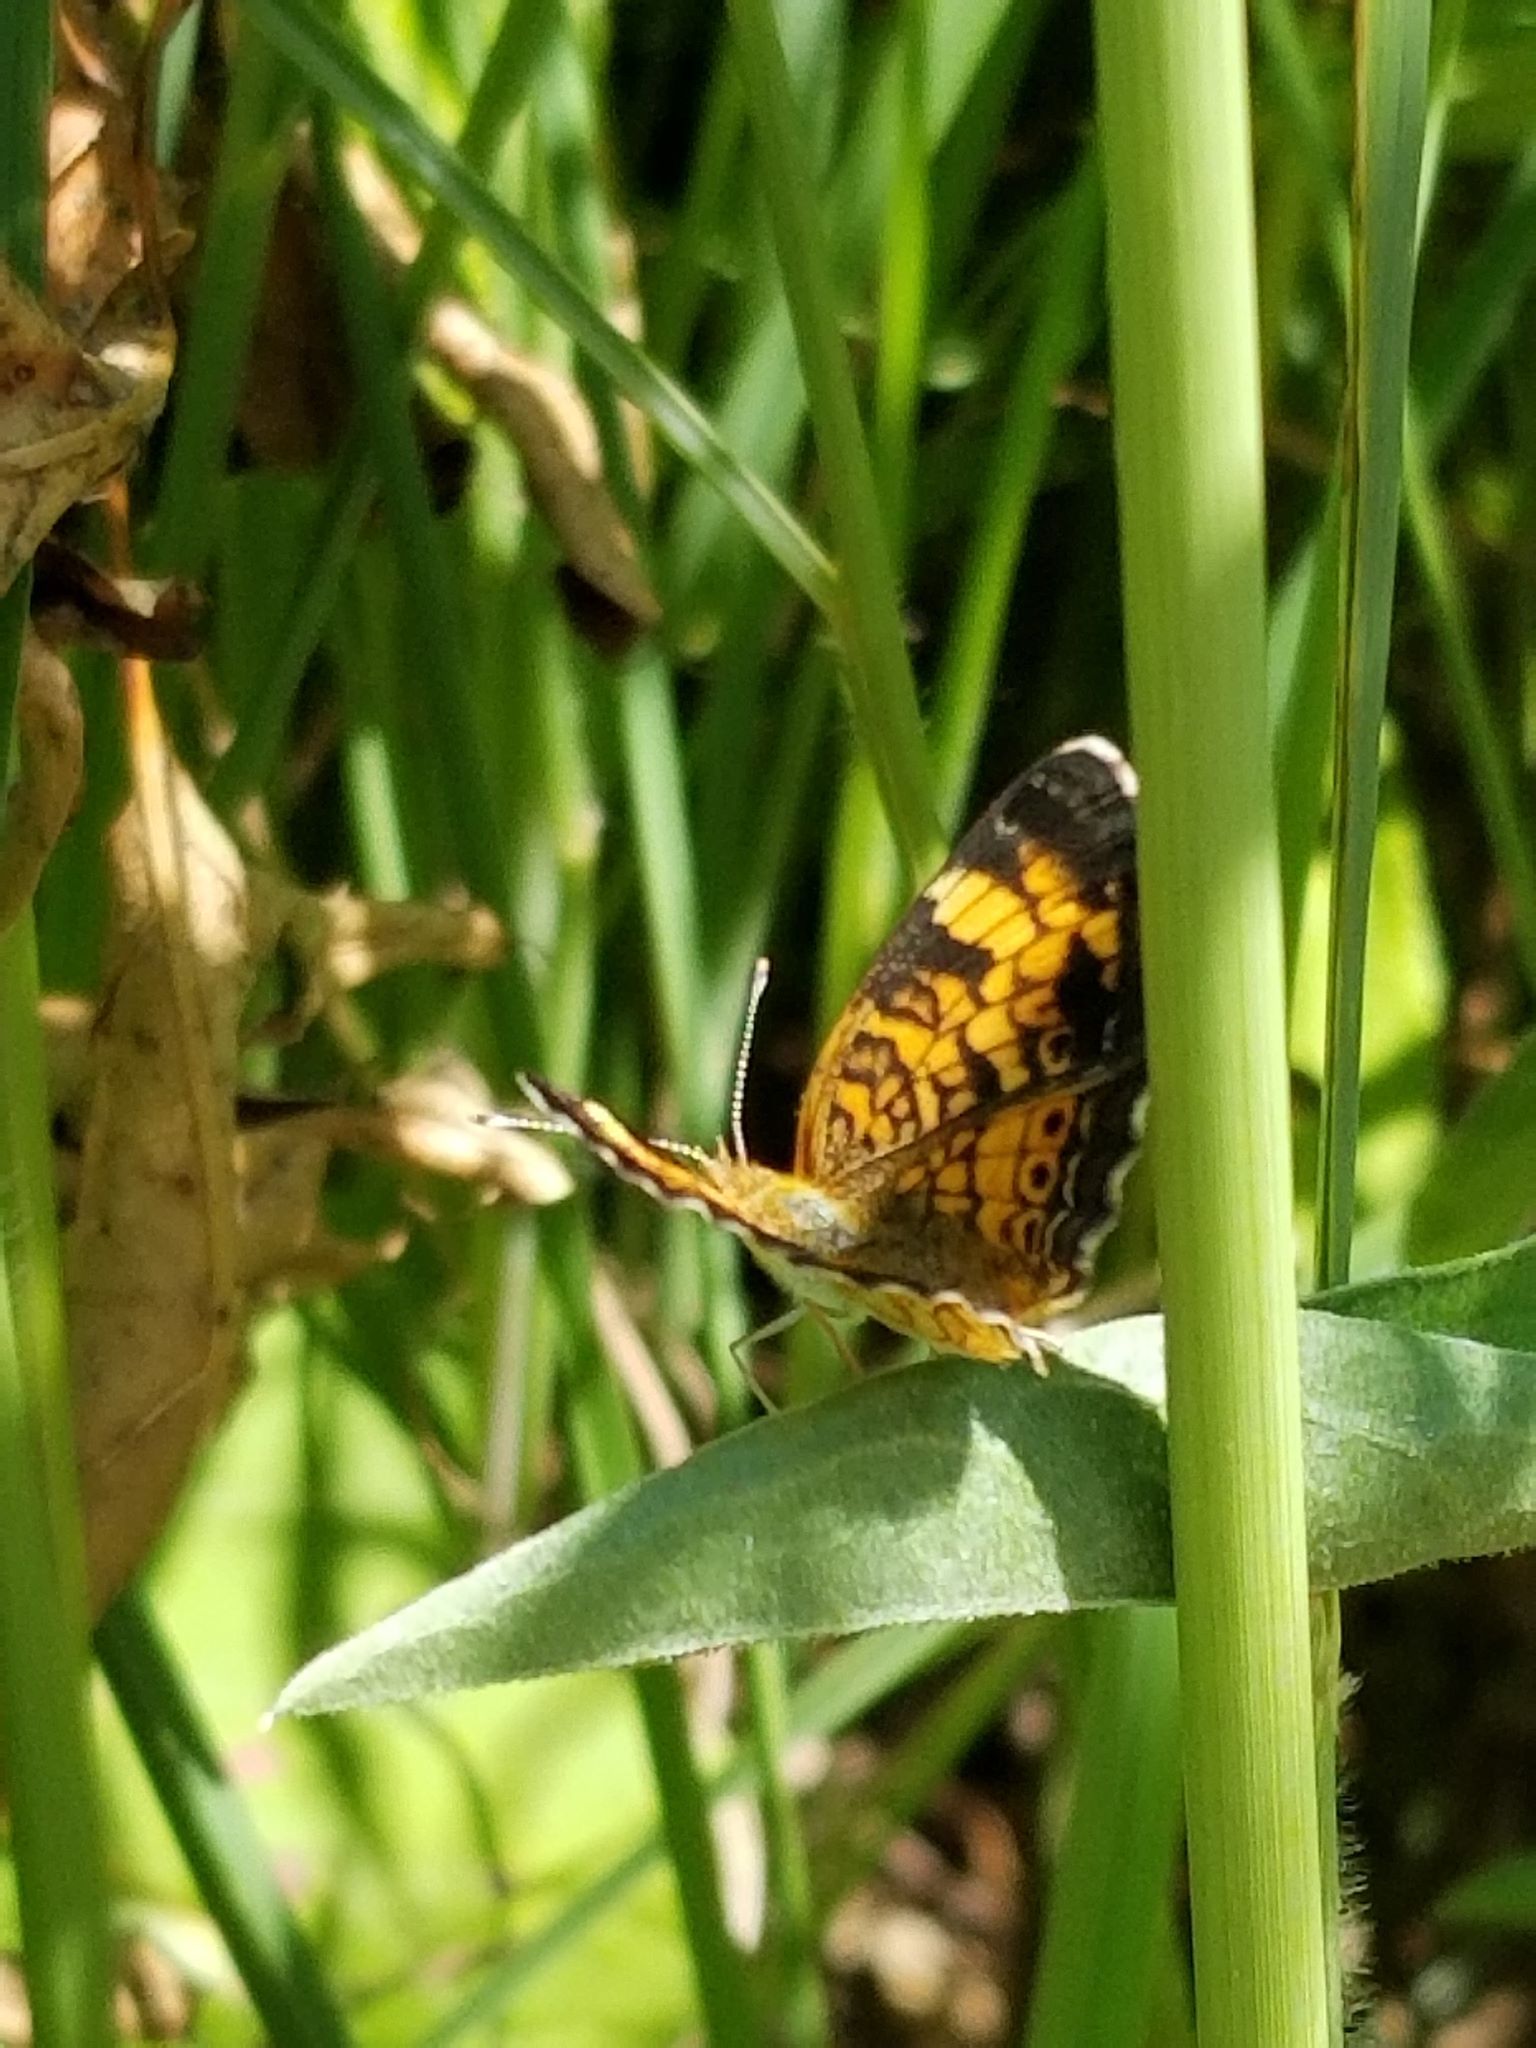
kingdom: Animalia
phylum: Arthropoda
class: Insecta
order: Lepidoptera
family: Nymphalidae
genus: Phyciodes
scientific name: Phyciodes tharos
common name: Pearl crescent
